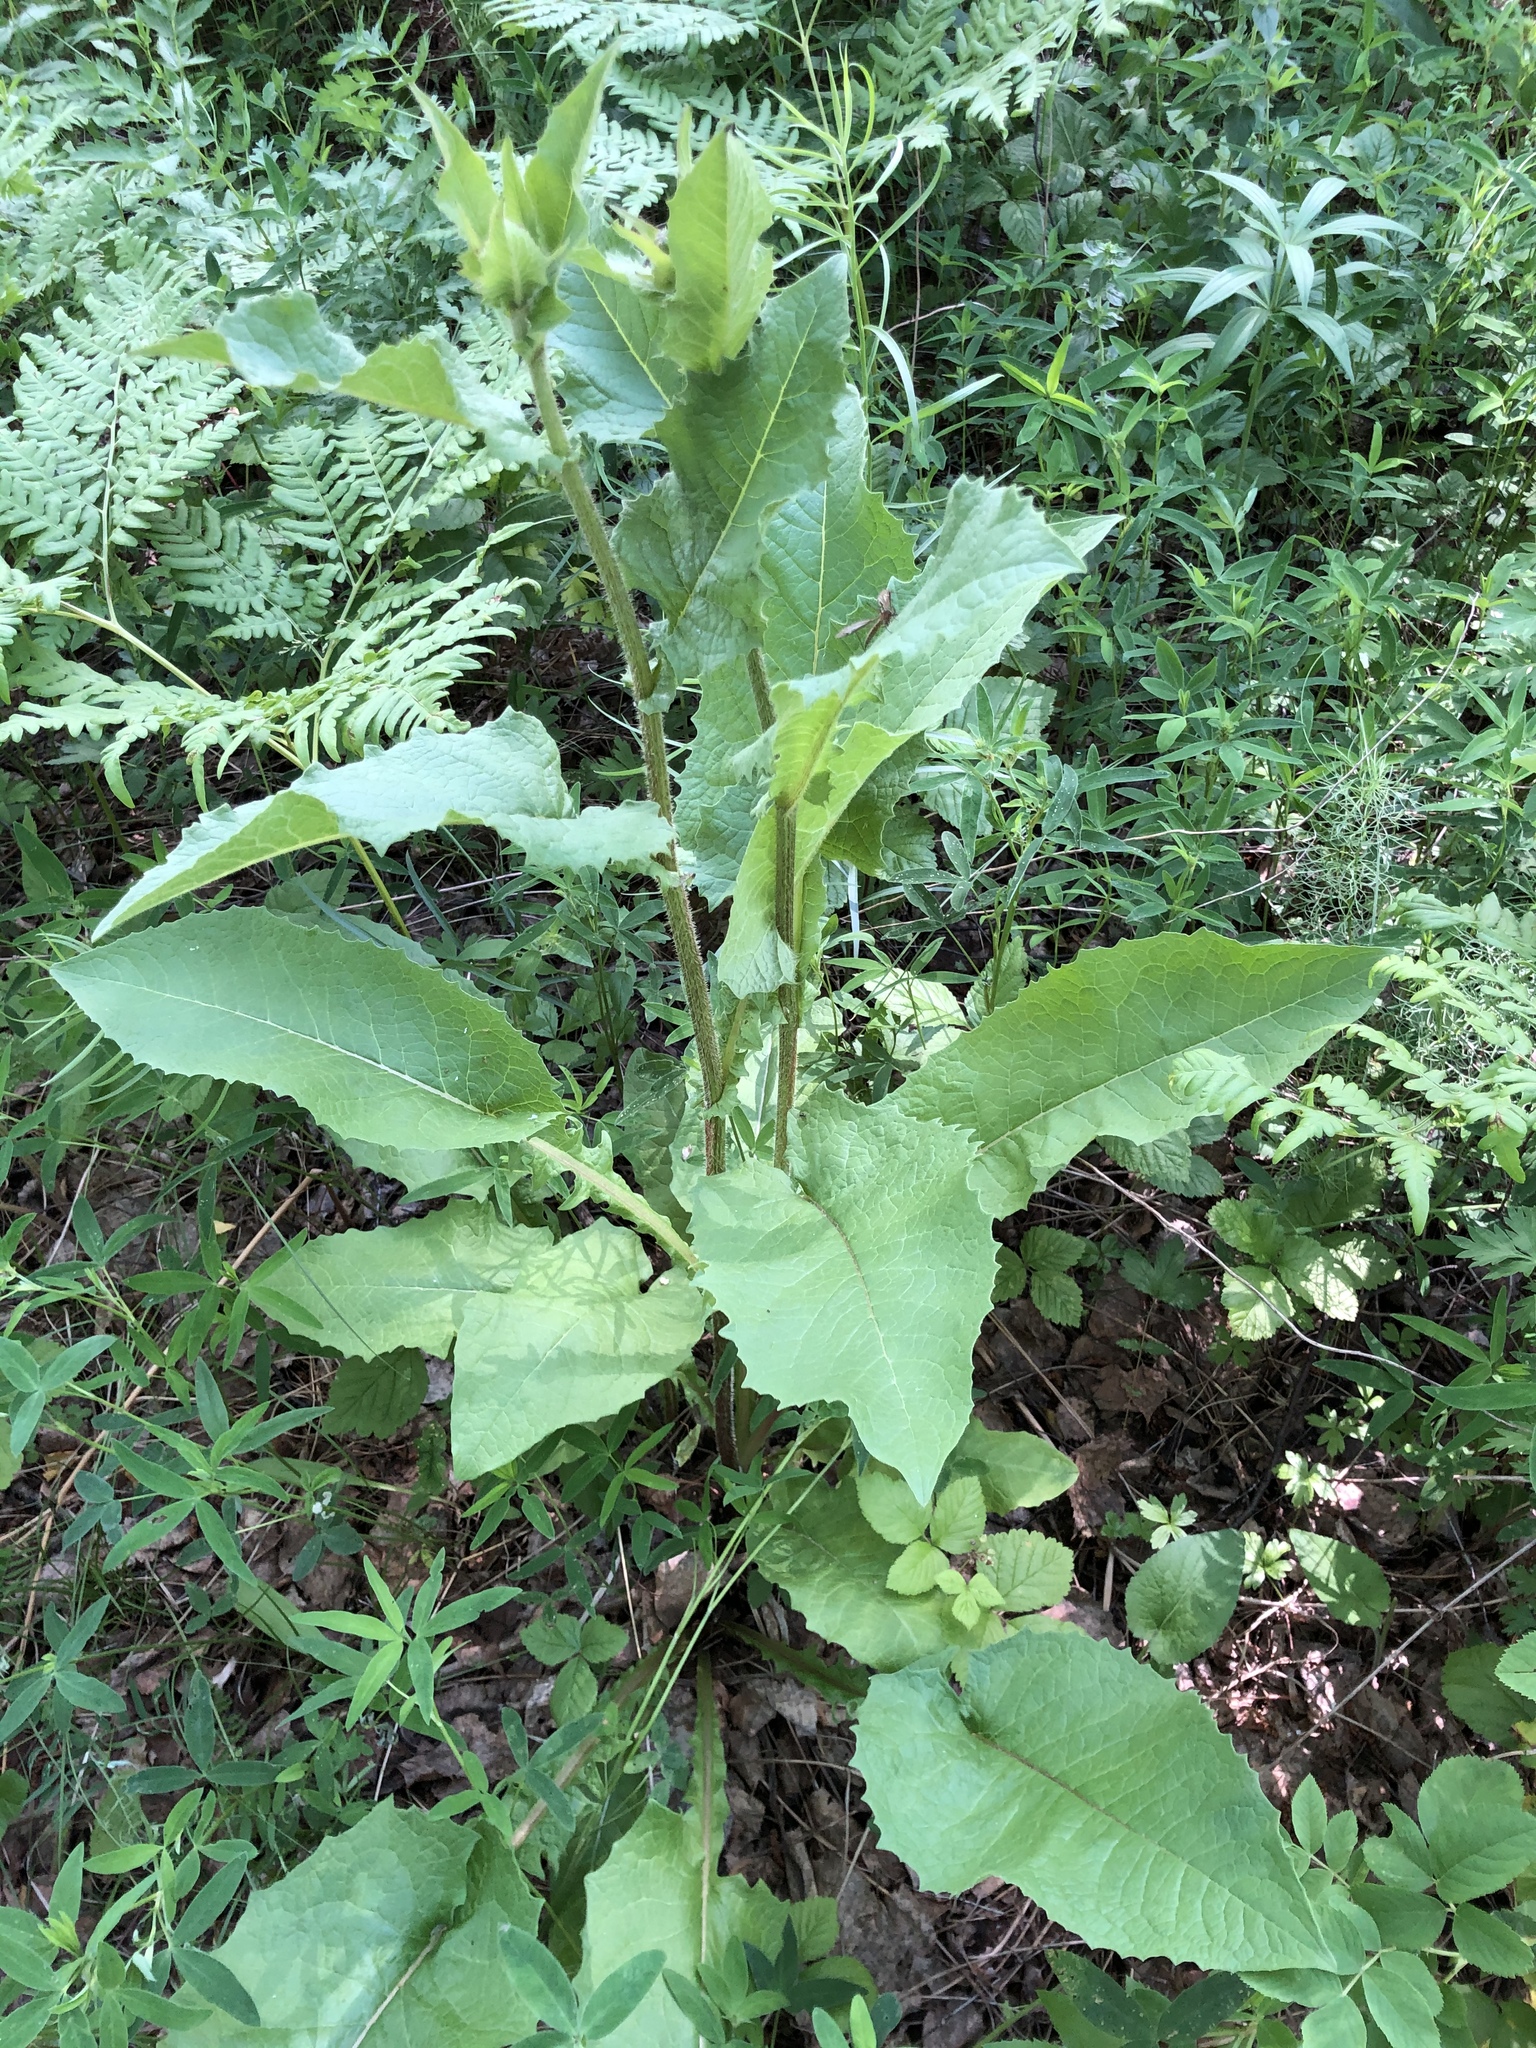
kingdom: Plantae
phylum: Tracheophyta
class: Magnoliopsida
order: Asterales
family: Asteraceae
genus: Crepis
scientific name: Crepis sibirica
